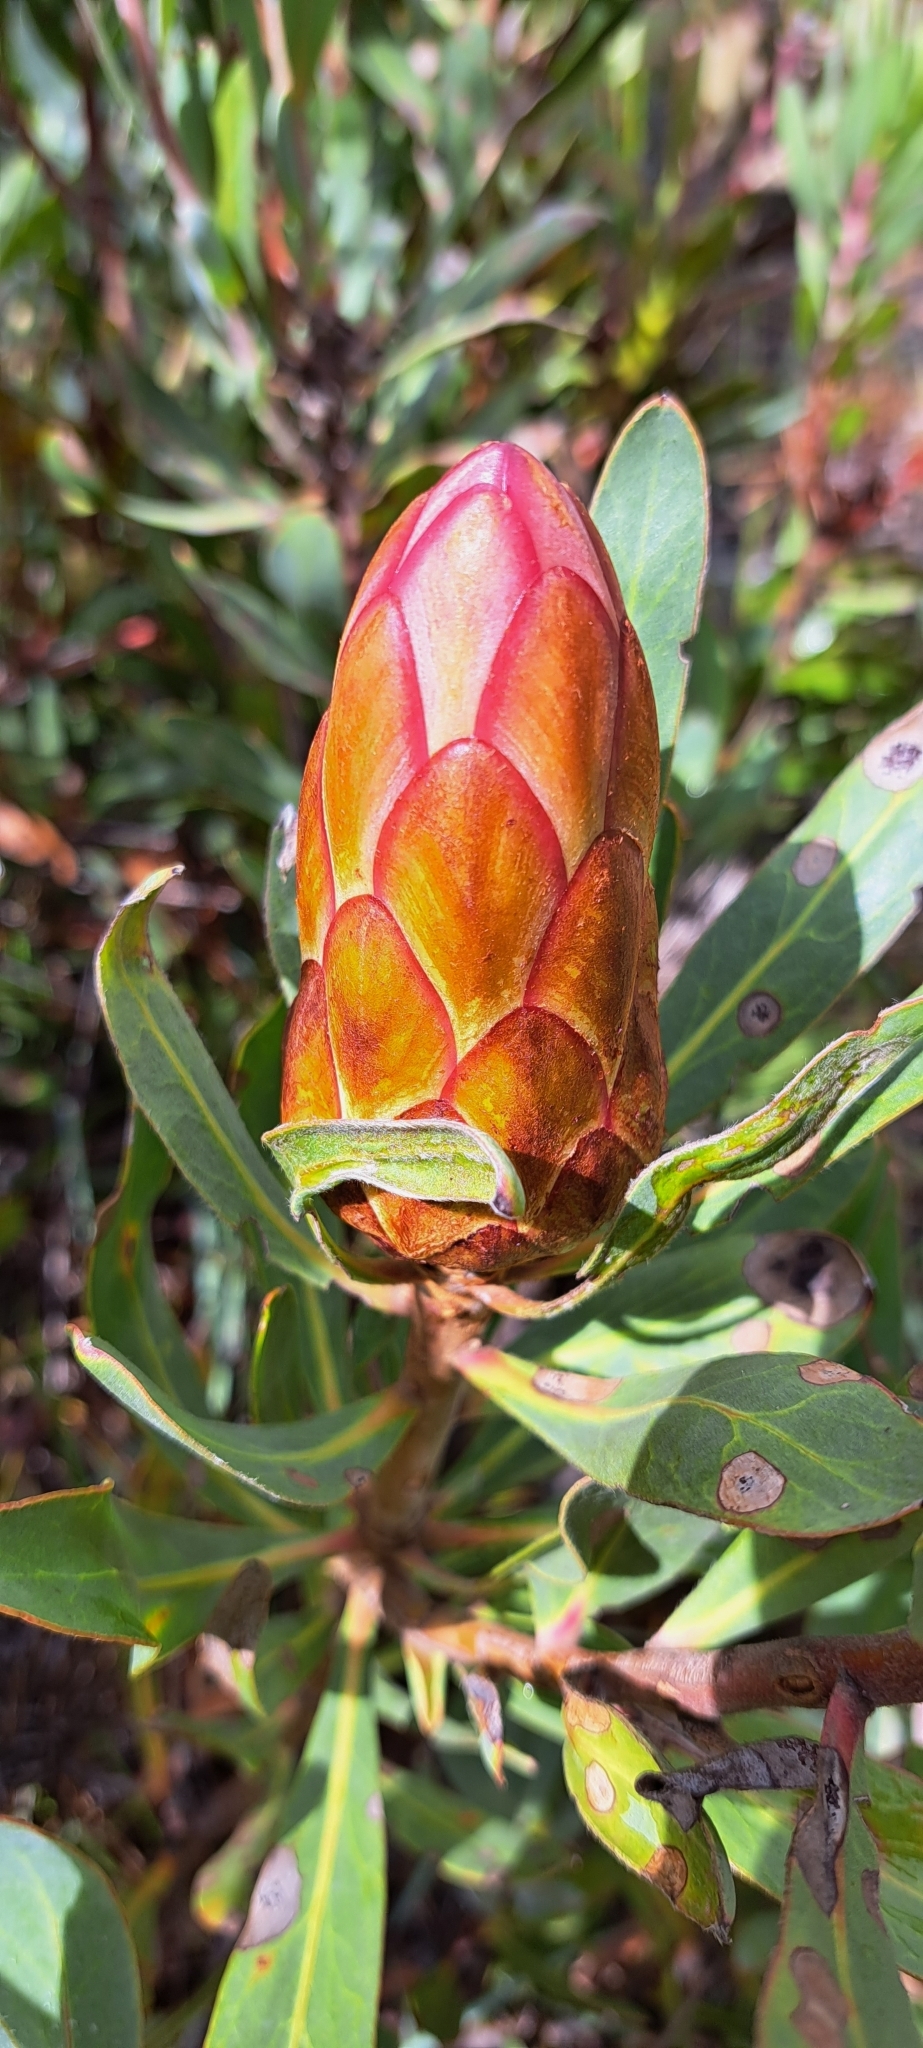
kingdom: Plantae
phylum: Tracheophyta
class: Magnoliopsida
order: Proteales
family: Proteaceae
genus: Protea
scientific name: Protea susannae
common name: Foetid-leaf sugarbush
